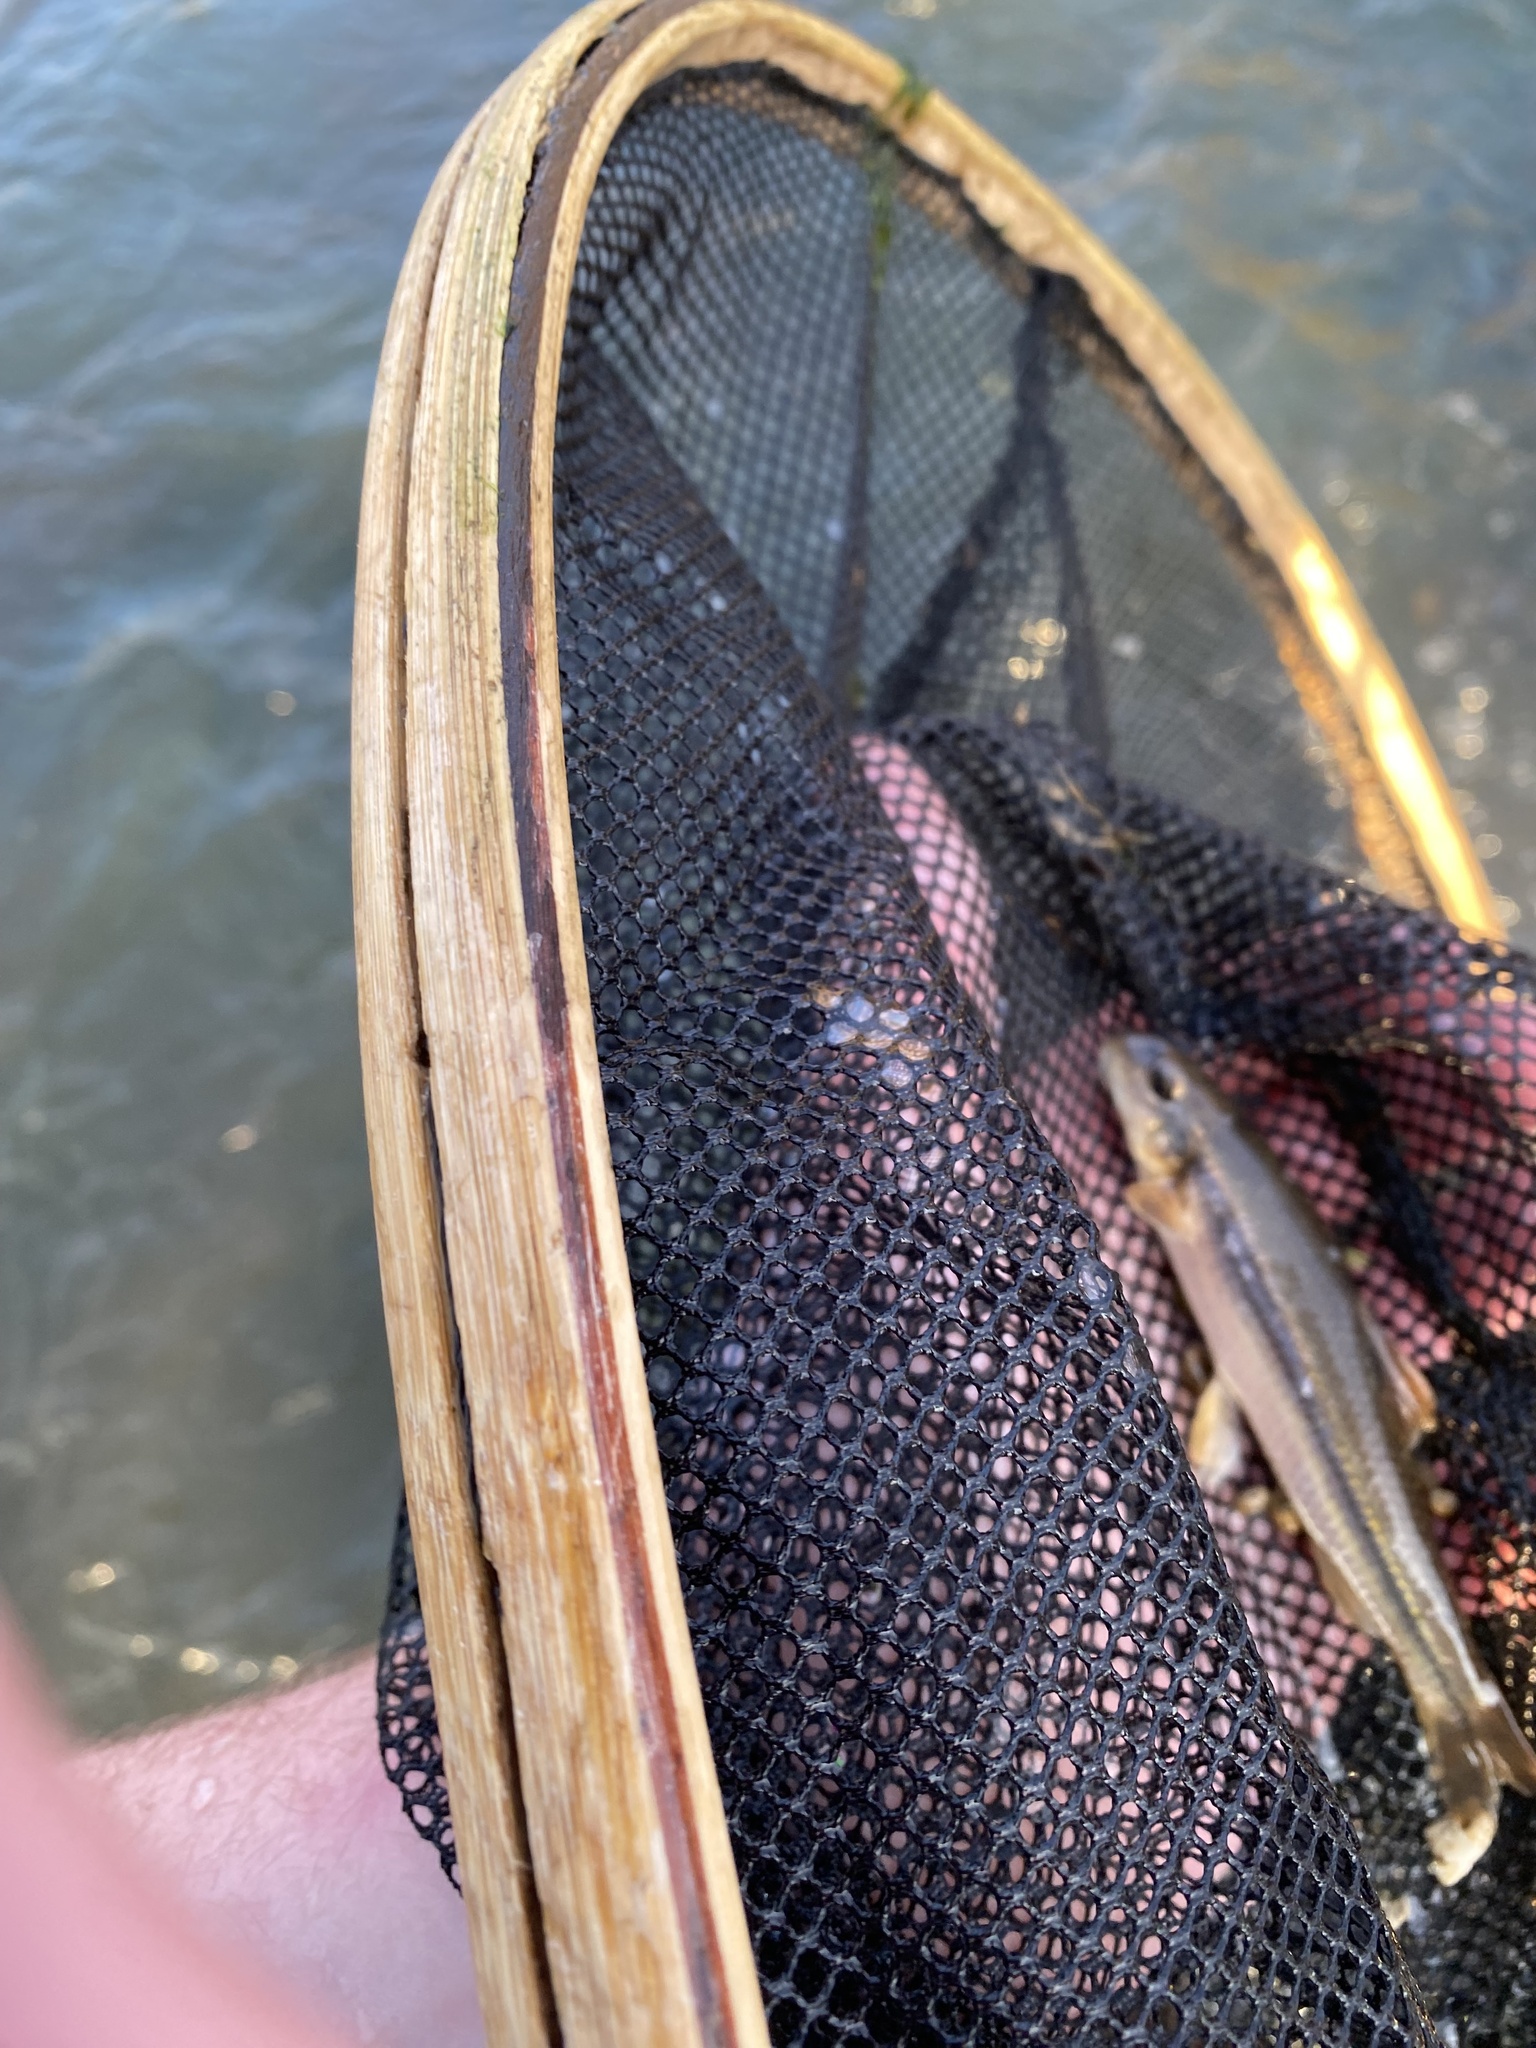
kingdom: Animalia
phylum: Chordata
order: Cypriniformes
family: Cyprinidae
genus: Phenacobius
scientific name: Phenacobius mirabilis
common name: Suckermouth minnow
